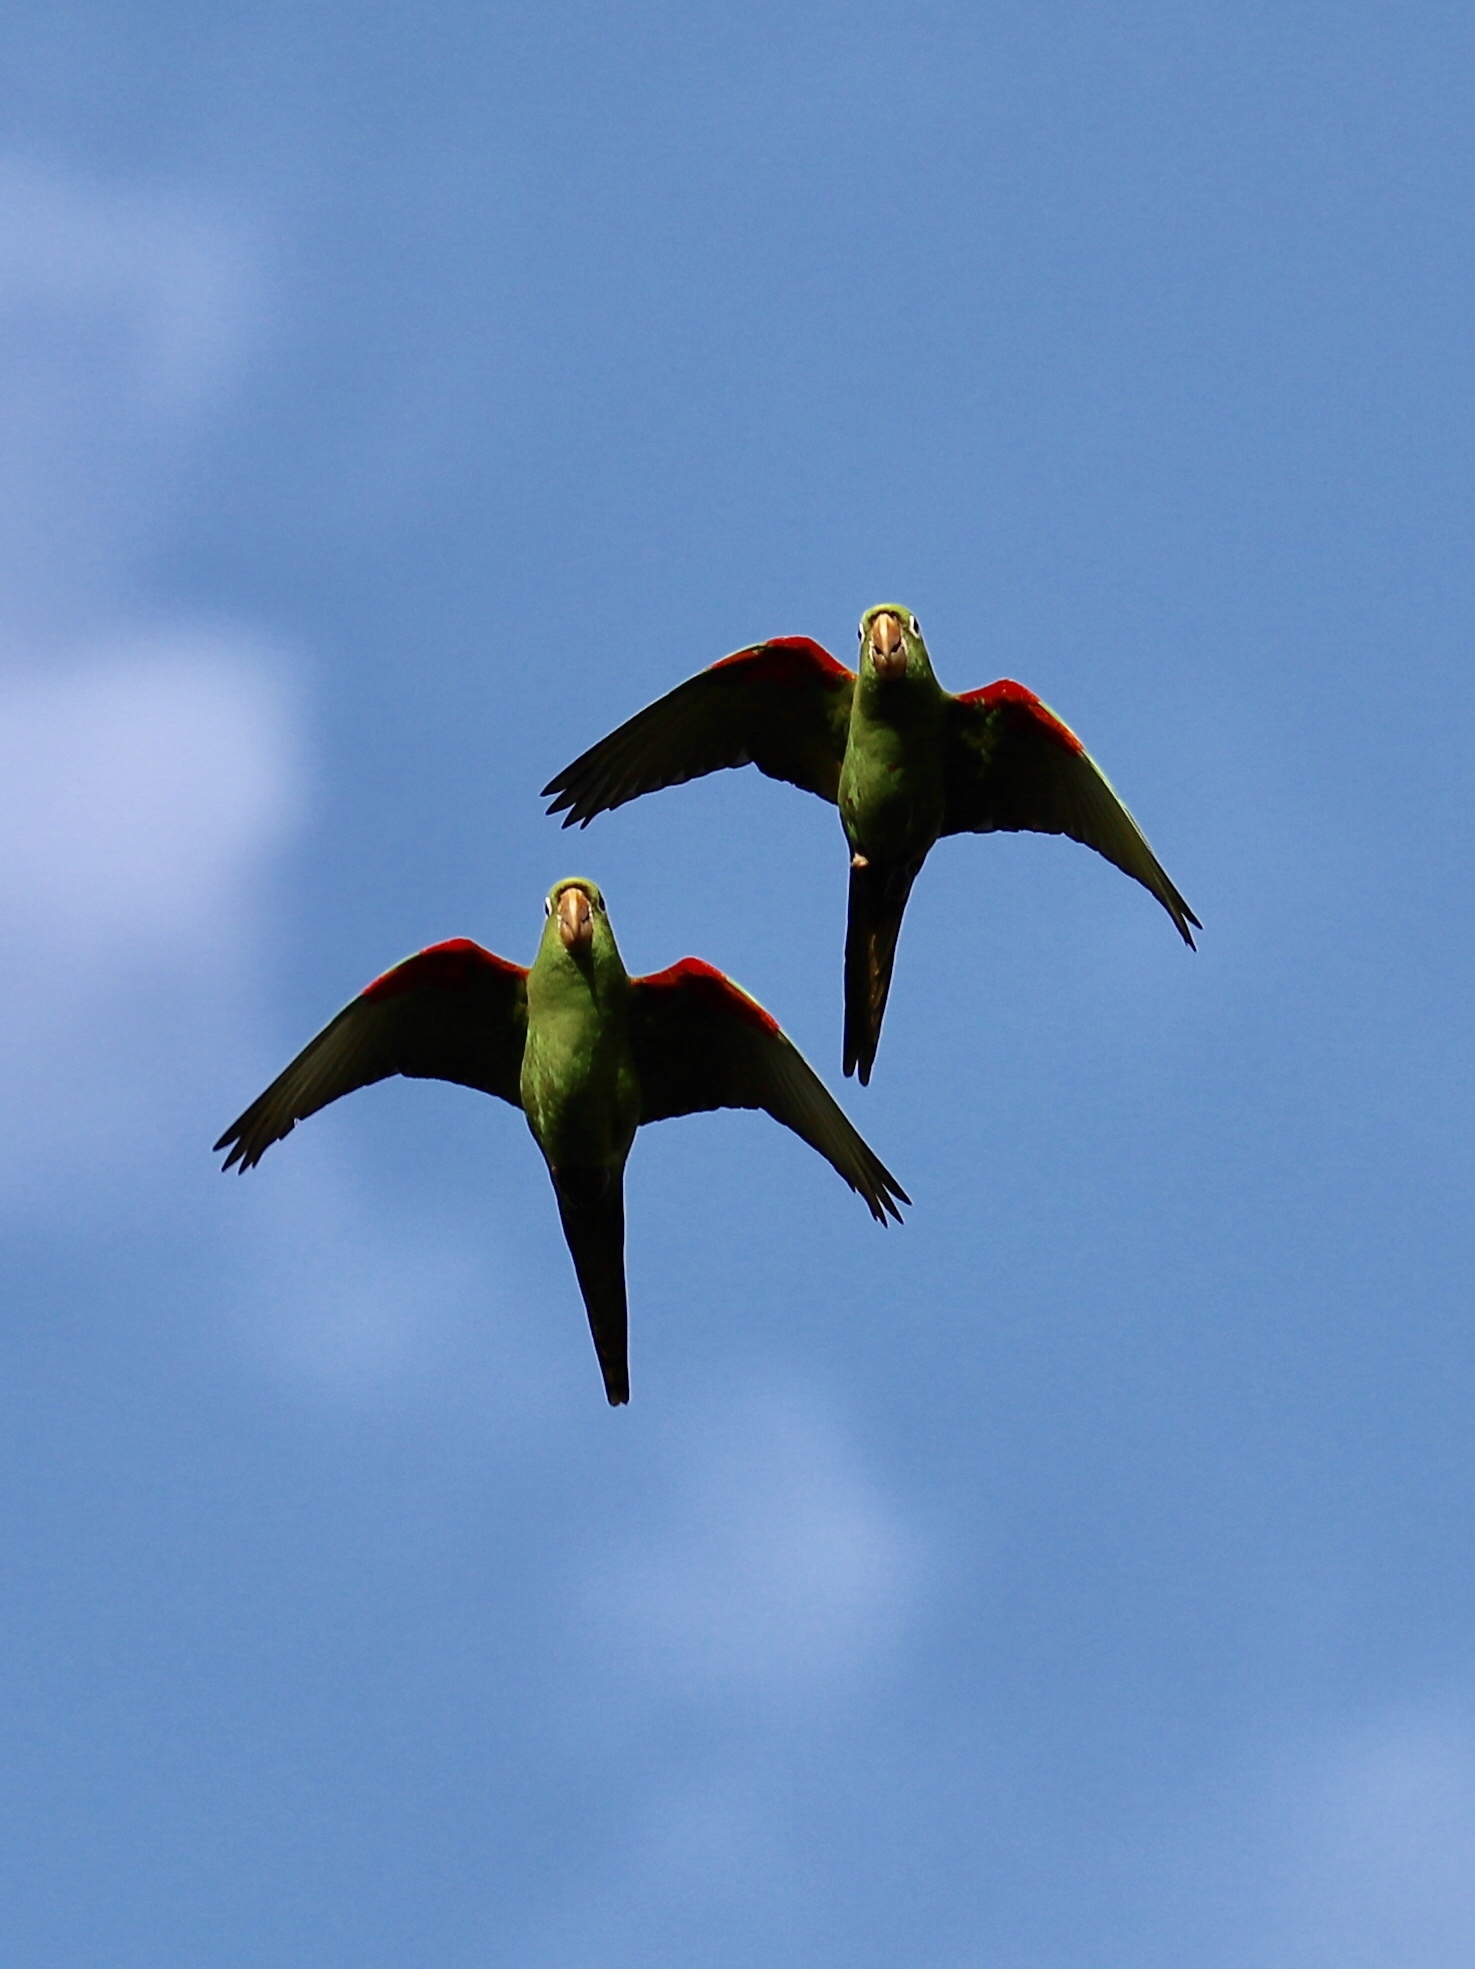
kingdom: Animalia
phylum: Chordata
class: Aves
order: Psittaciformes
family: Psittacidae
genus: Aratinga
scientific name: Aratinga chloroptera
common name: Hispaniolan parakeet
